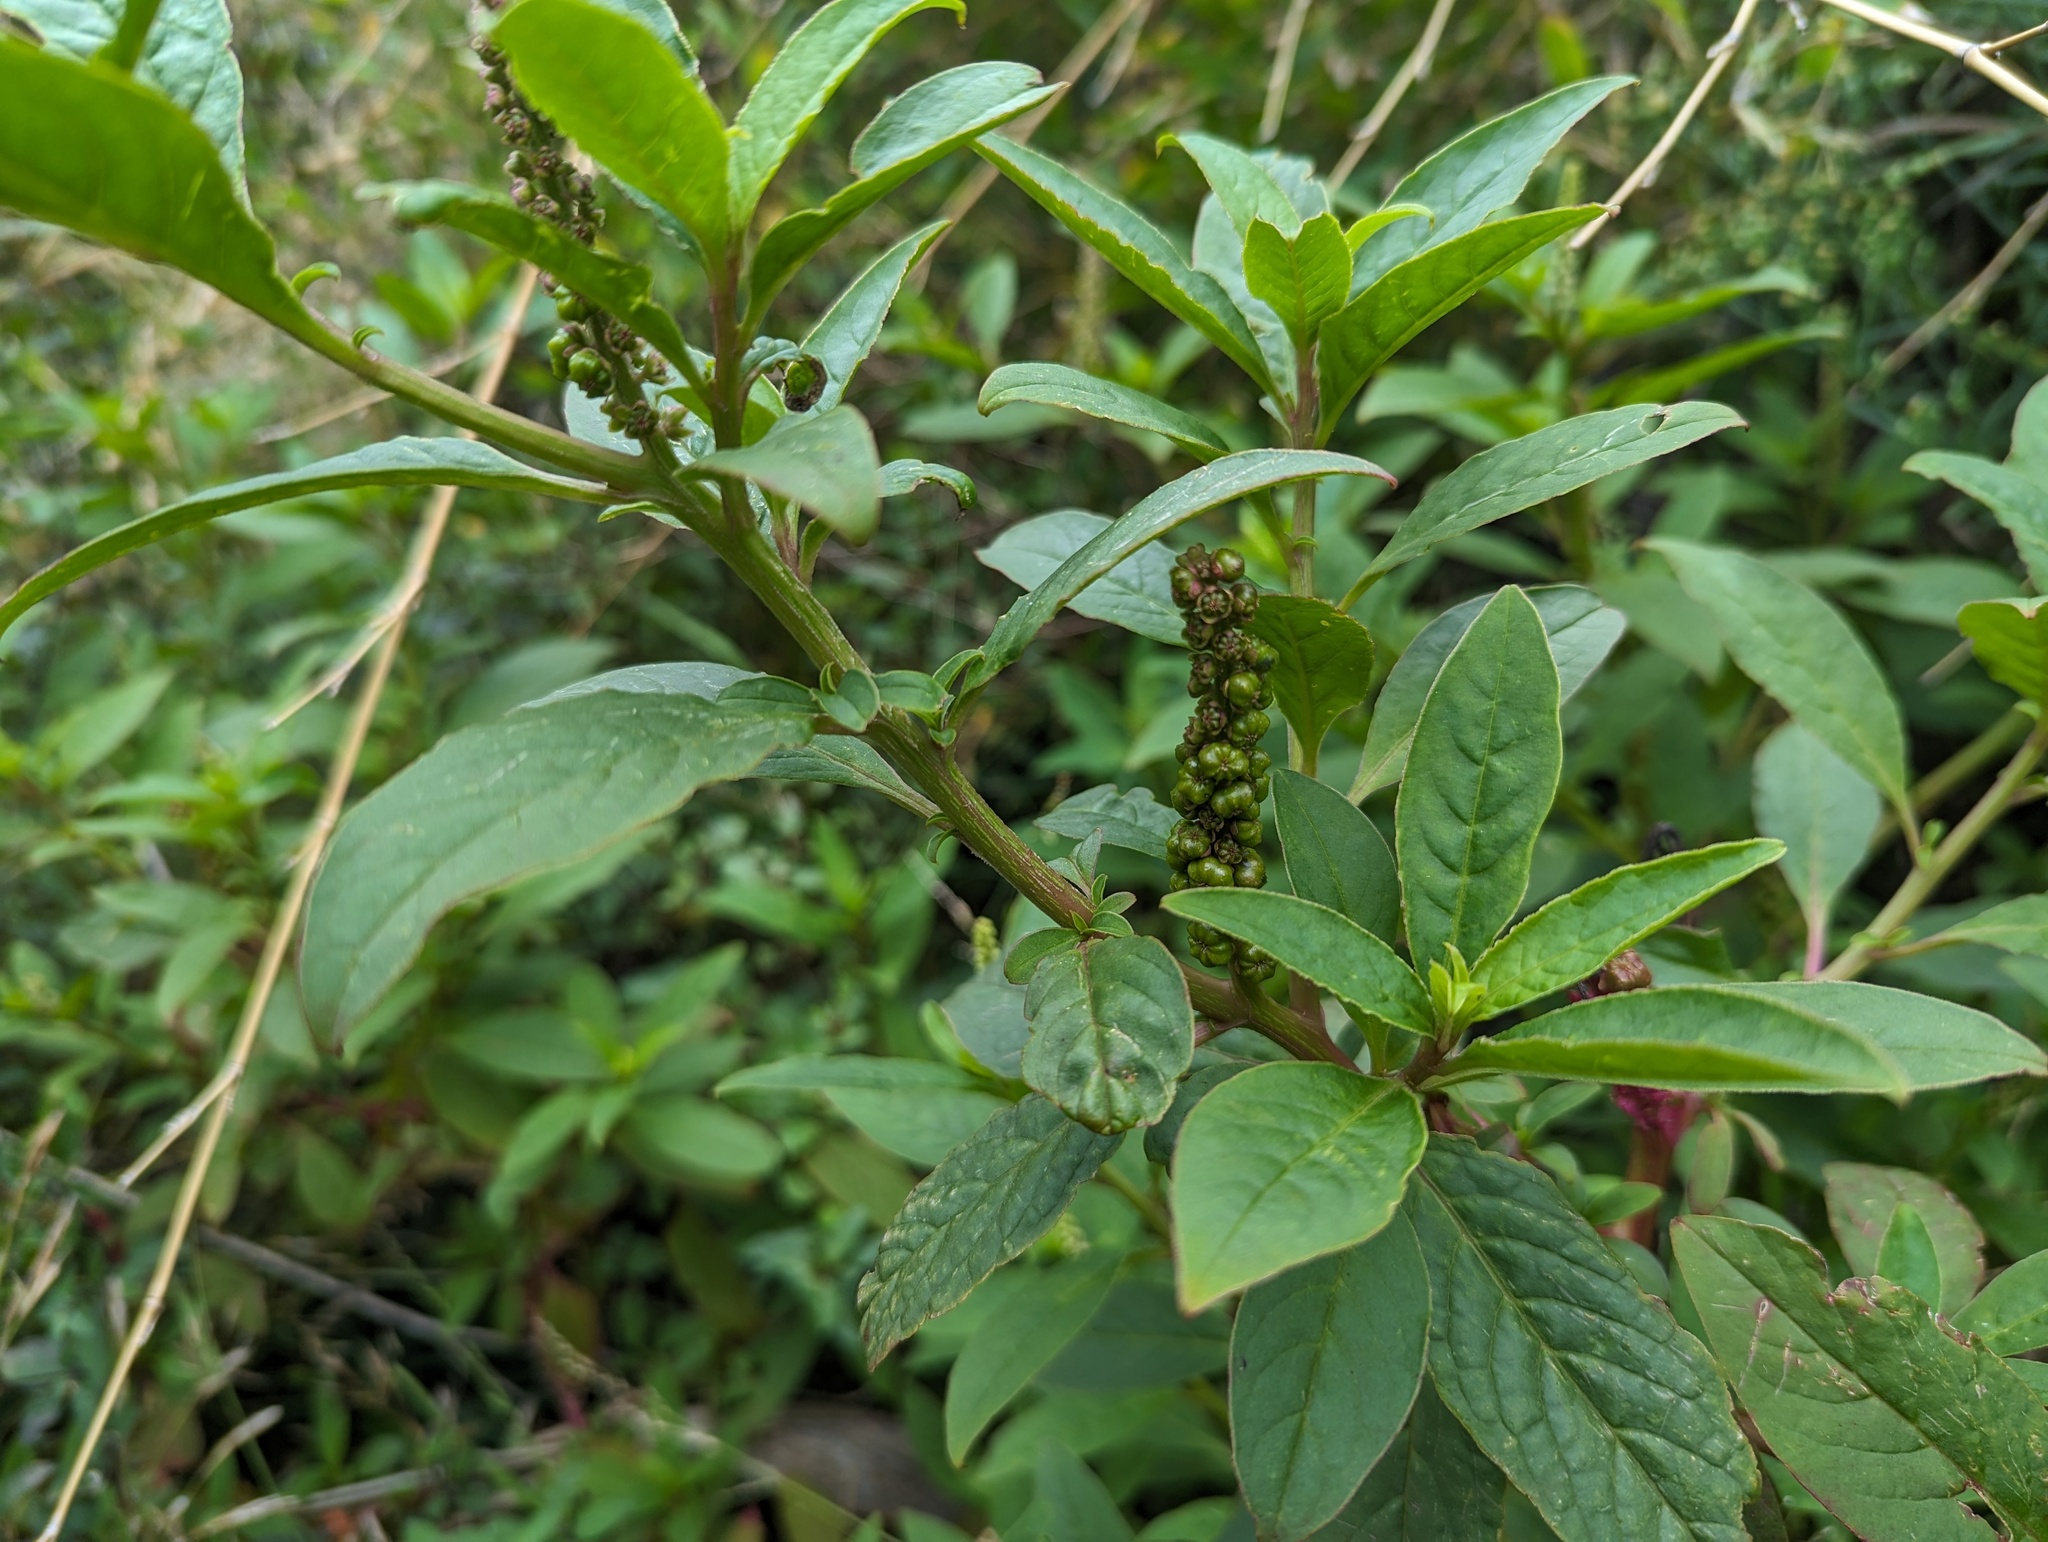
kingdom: Plantae
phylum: Tracheophyta
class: Magnoliopsida
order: Caryophyllales
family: Phytolaccaceae
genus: Phytolacca
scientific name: Phytolacca icosandra
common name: Button pokeweed
